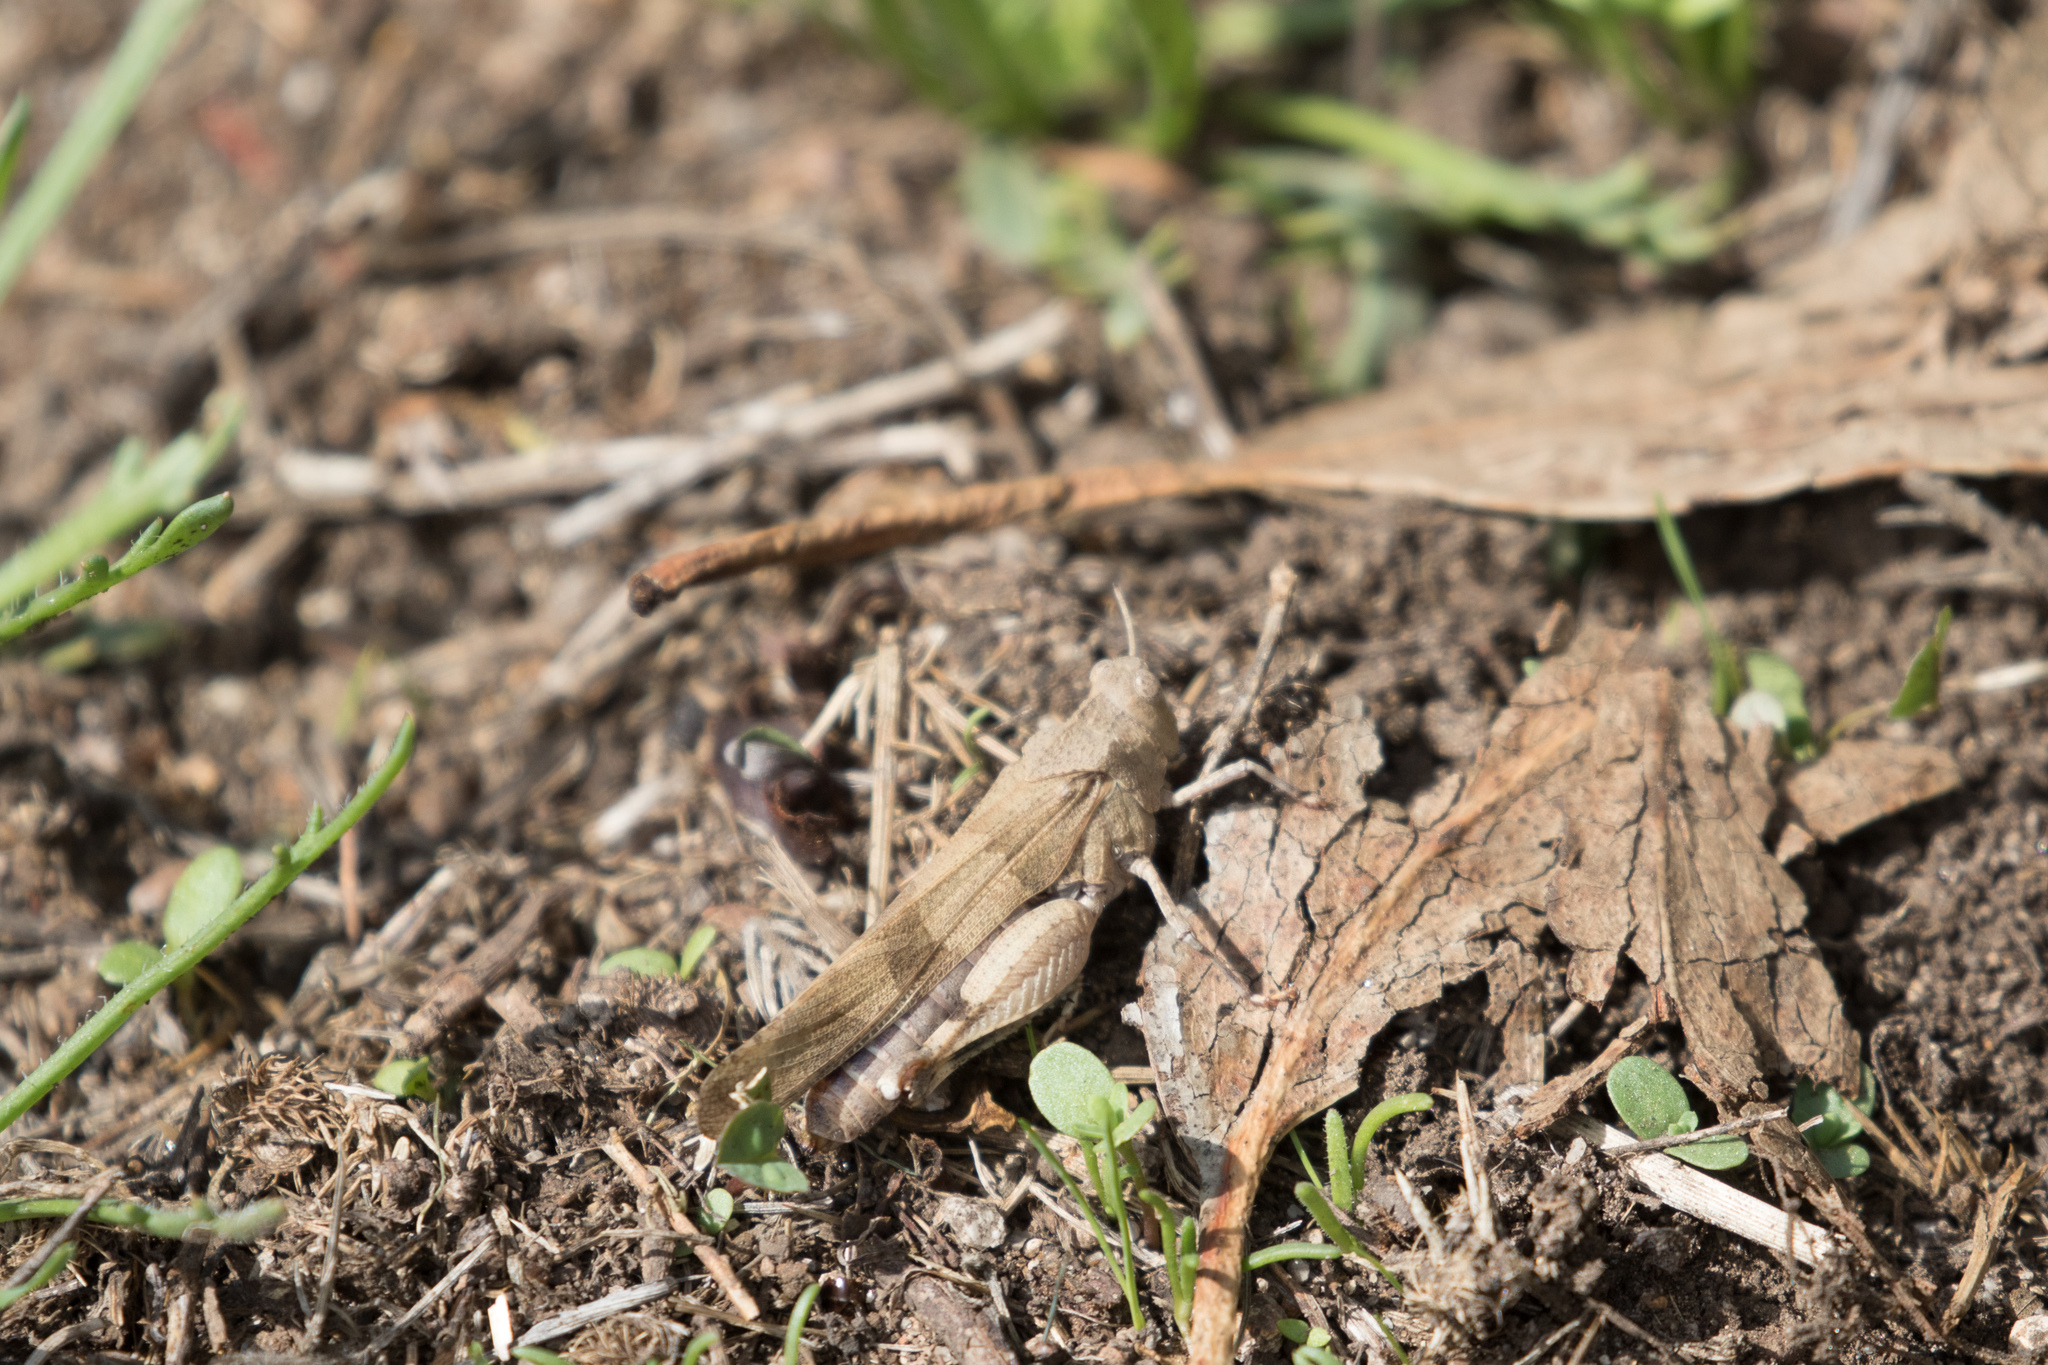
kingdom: Animalia
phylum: Arthropoda
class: Insecta
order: Orthoptera
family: Acrididae
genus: Oedipoda
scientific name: Oedipoda caerulescens
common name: Blue-winged grasshopper
